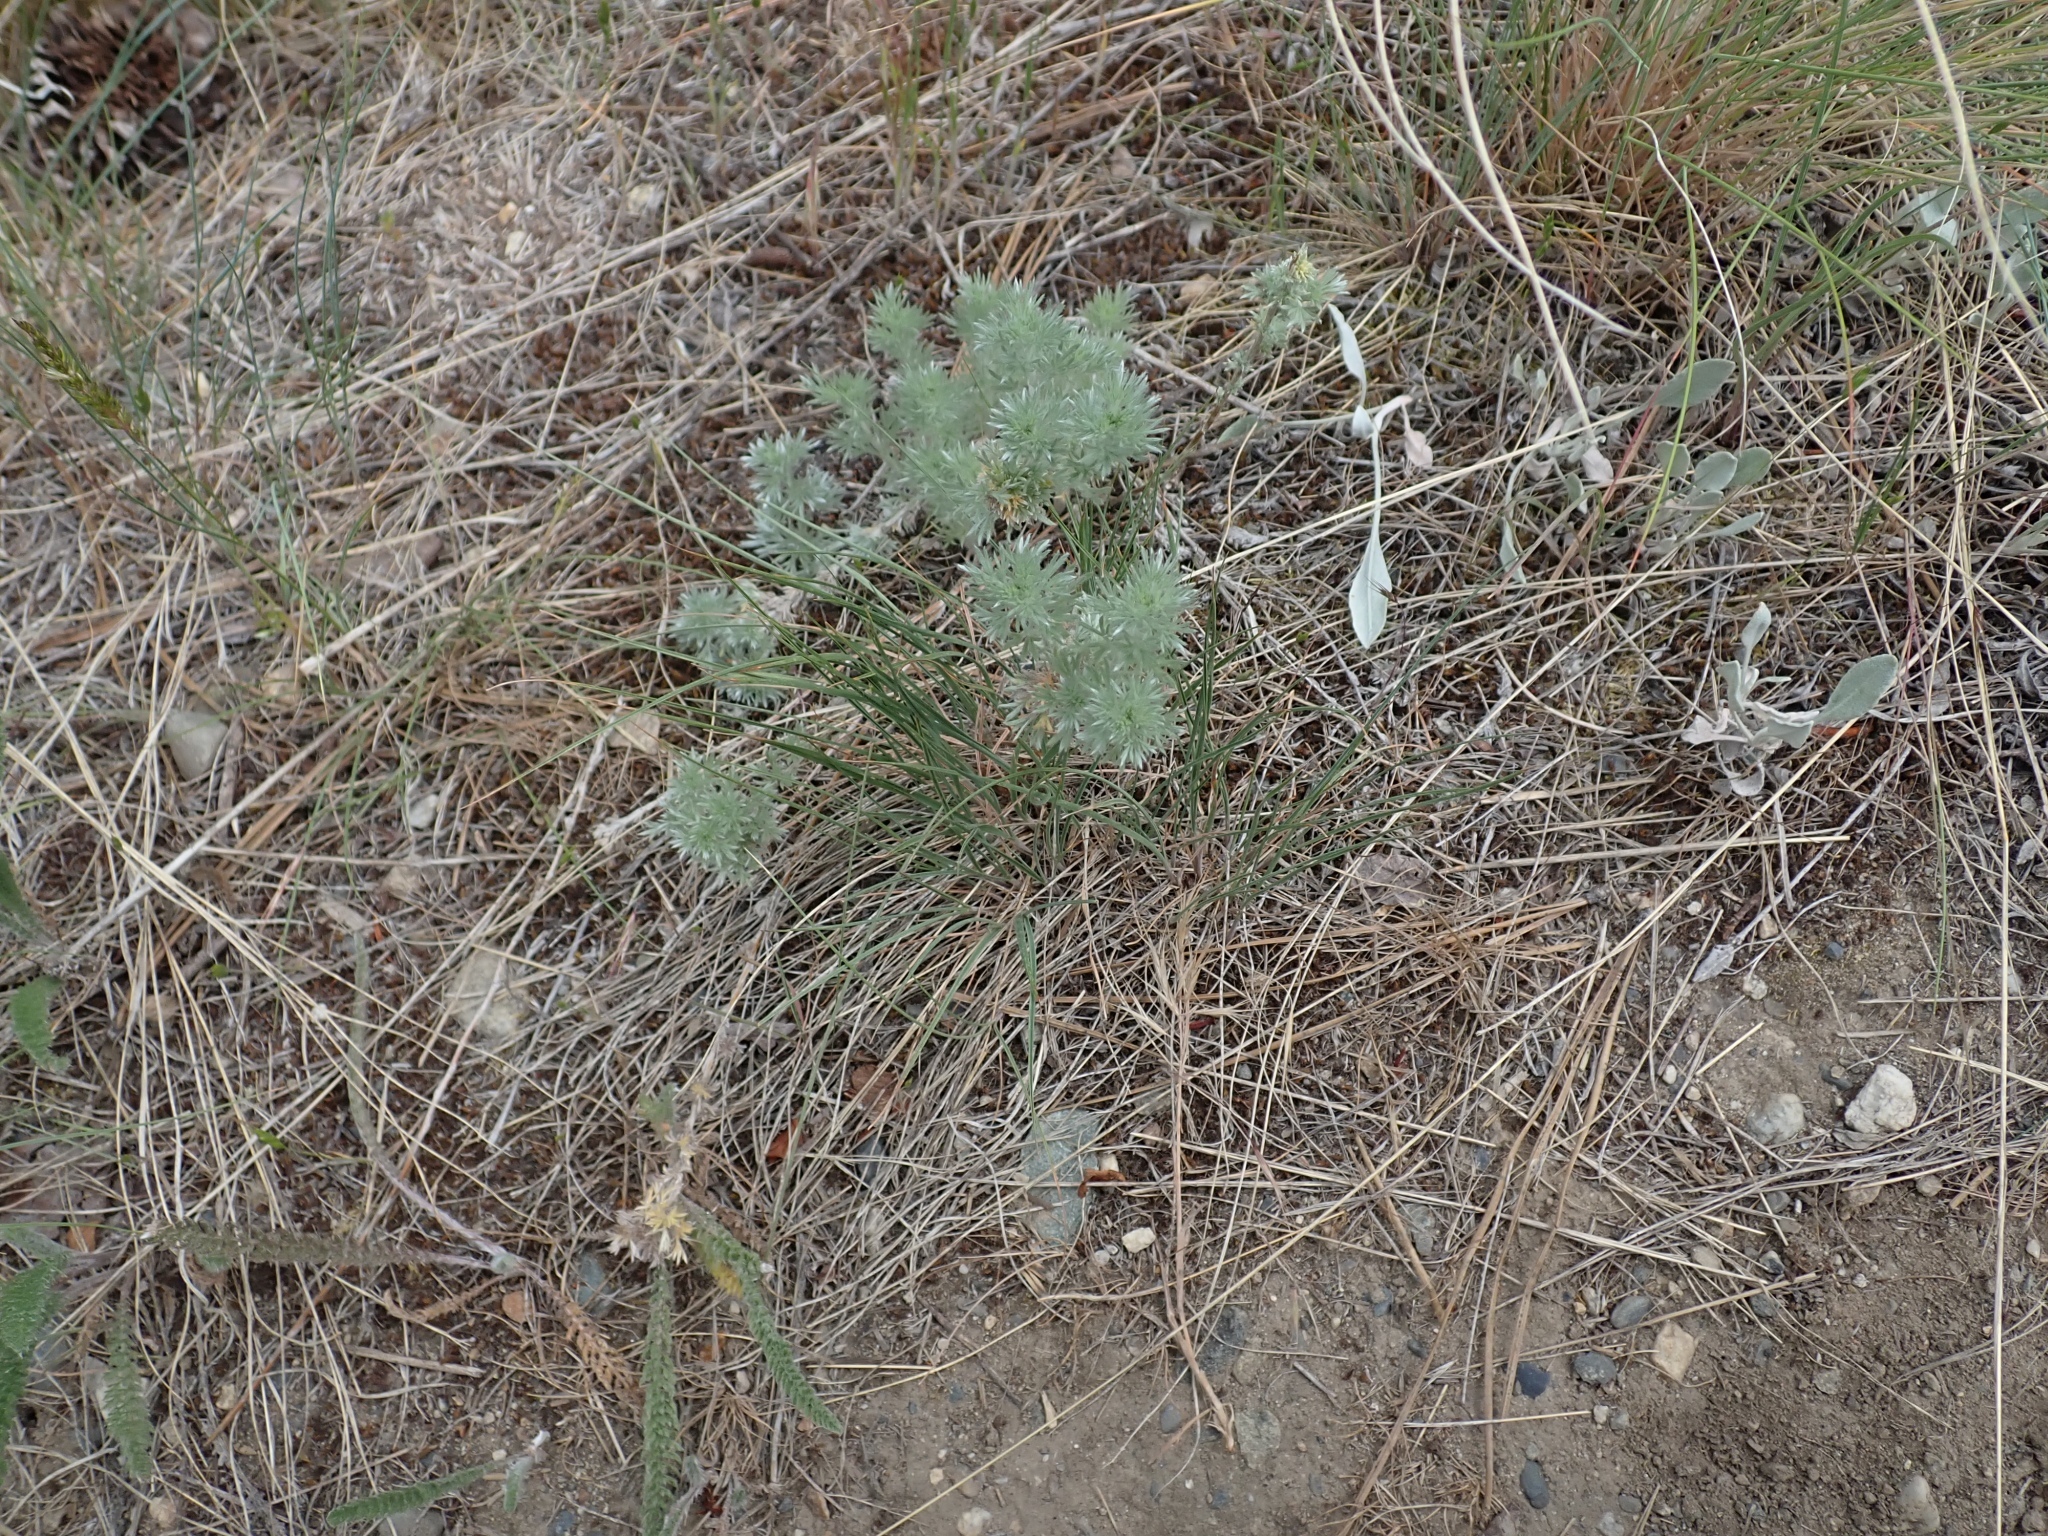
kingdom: Plantae
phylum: Tracheophyta
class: Magnoliopsida
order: Asterales
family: Asteraceae
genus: Artemisia
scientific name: Artemisia frigida
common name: Prairie sagewort
